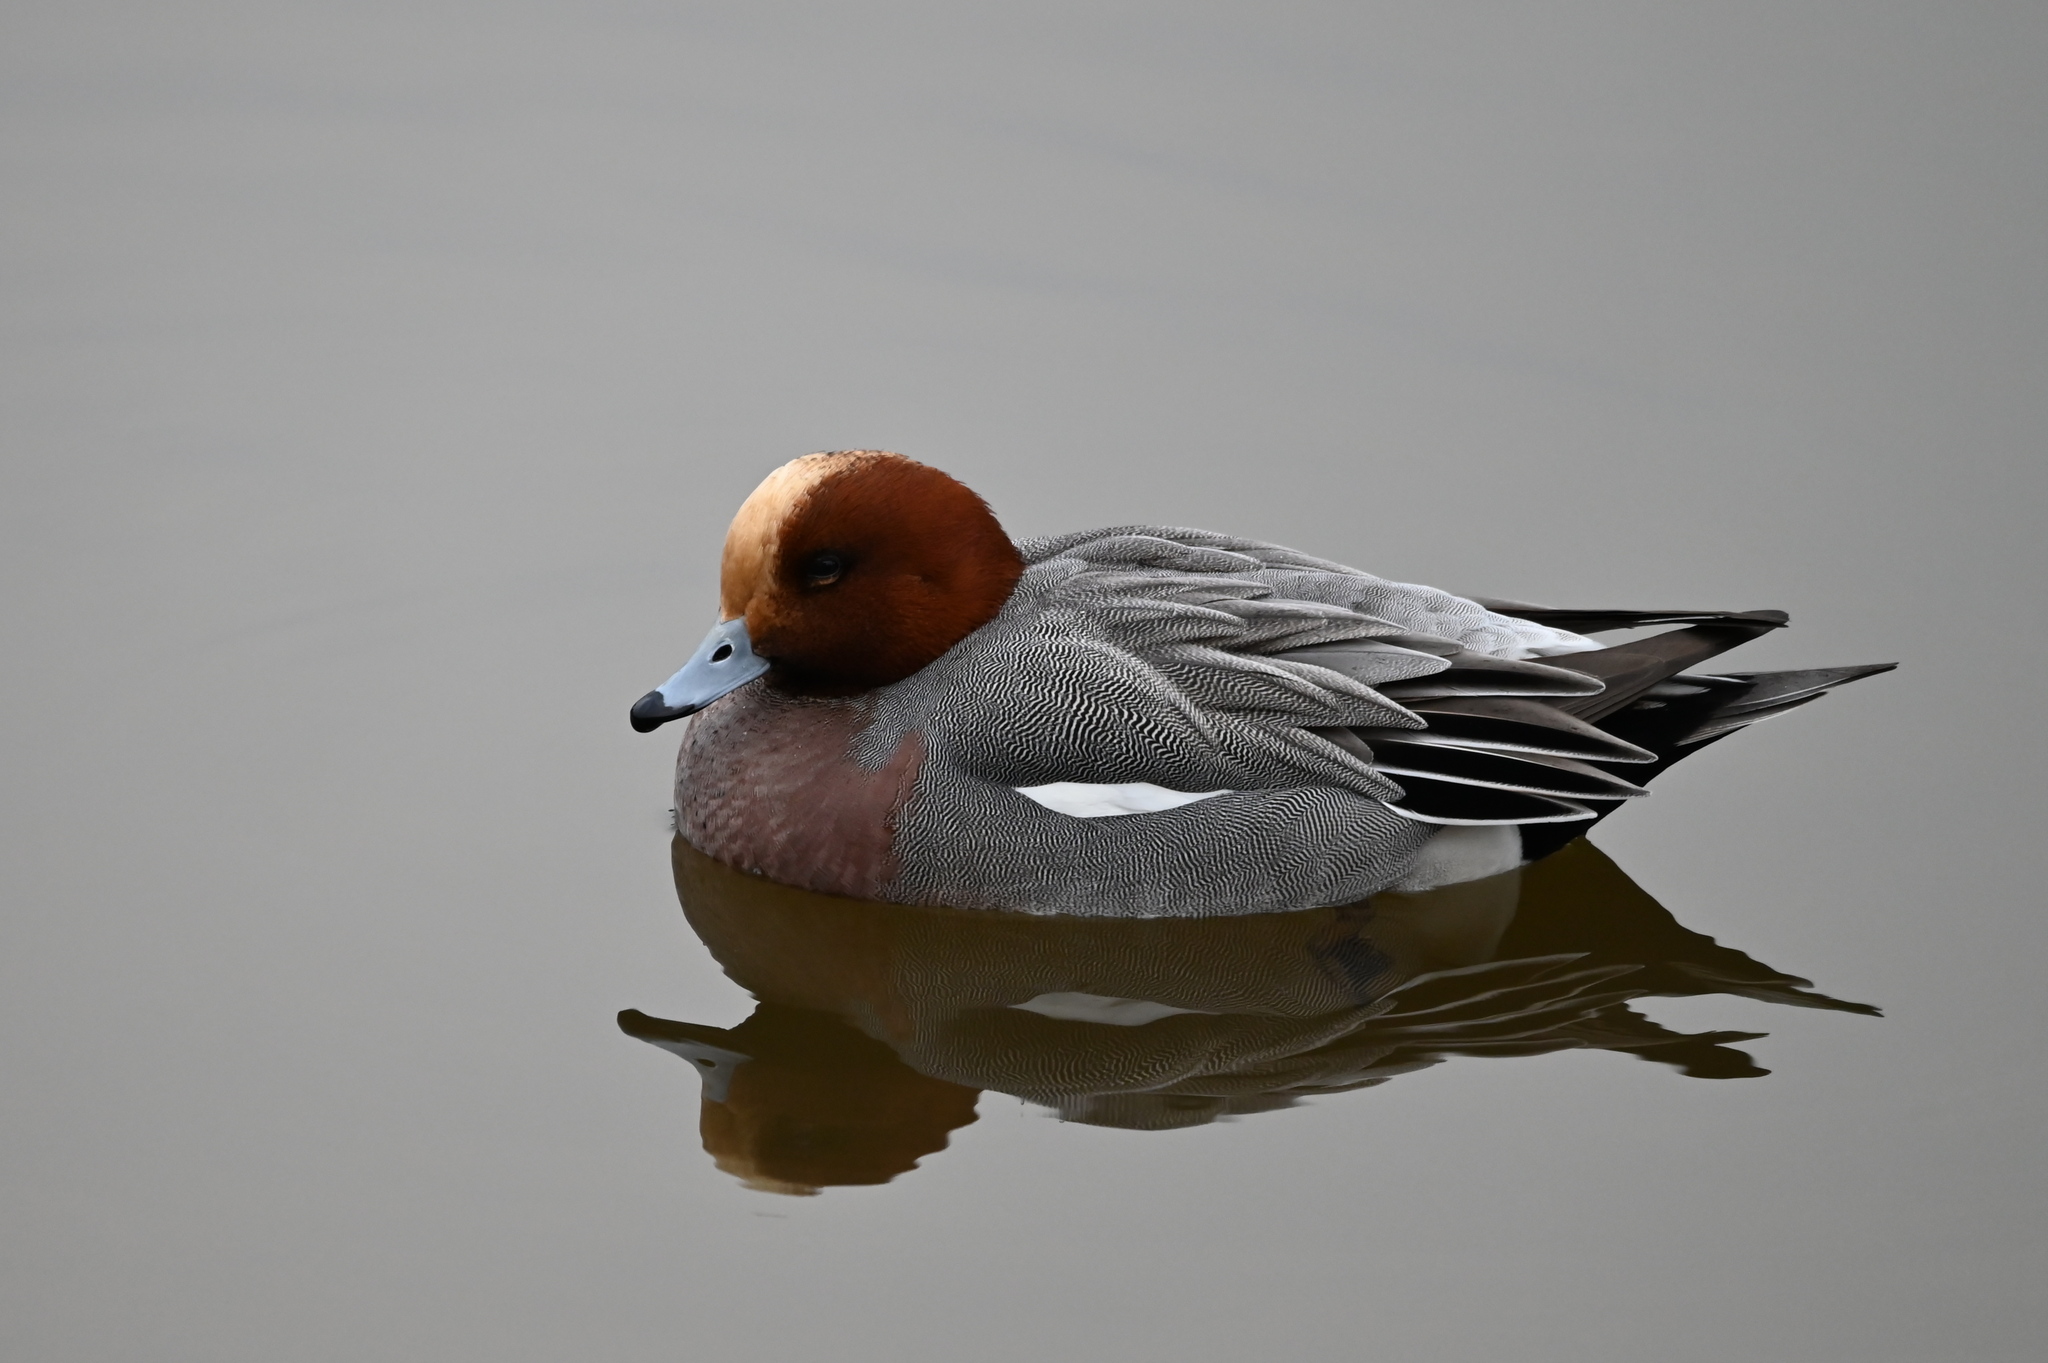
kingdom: Animalia
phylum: Chordata
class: Aves
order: Anseriformes
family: Anatidae
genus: Mareca
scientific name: Mareca penelope
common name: Eurasian wigeon
